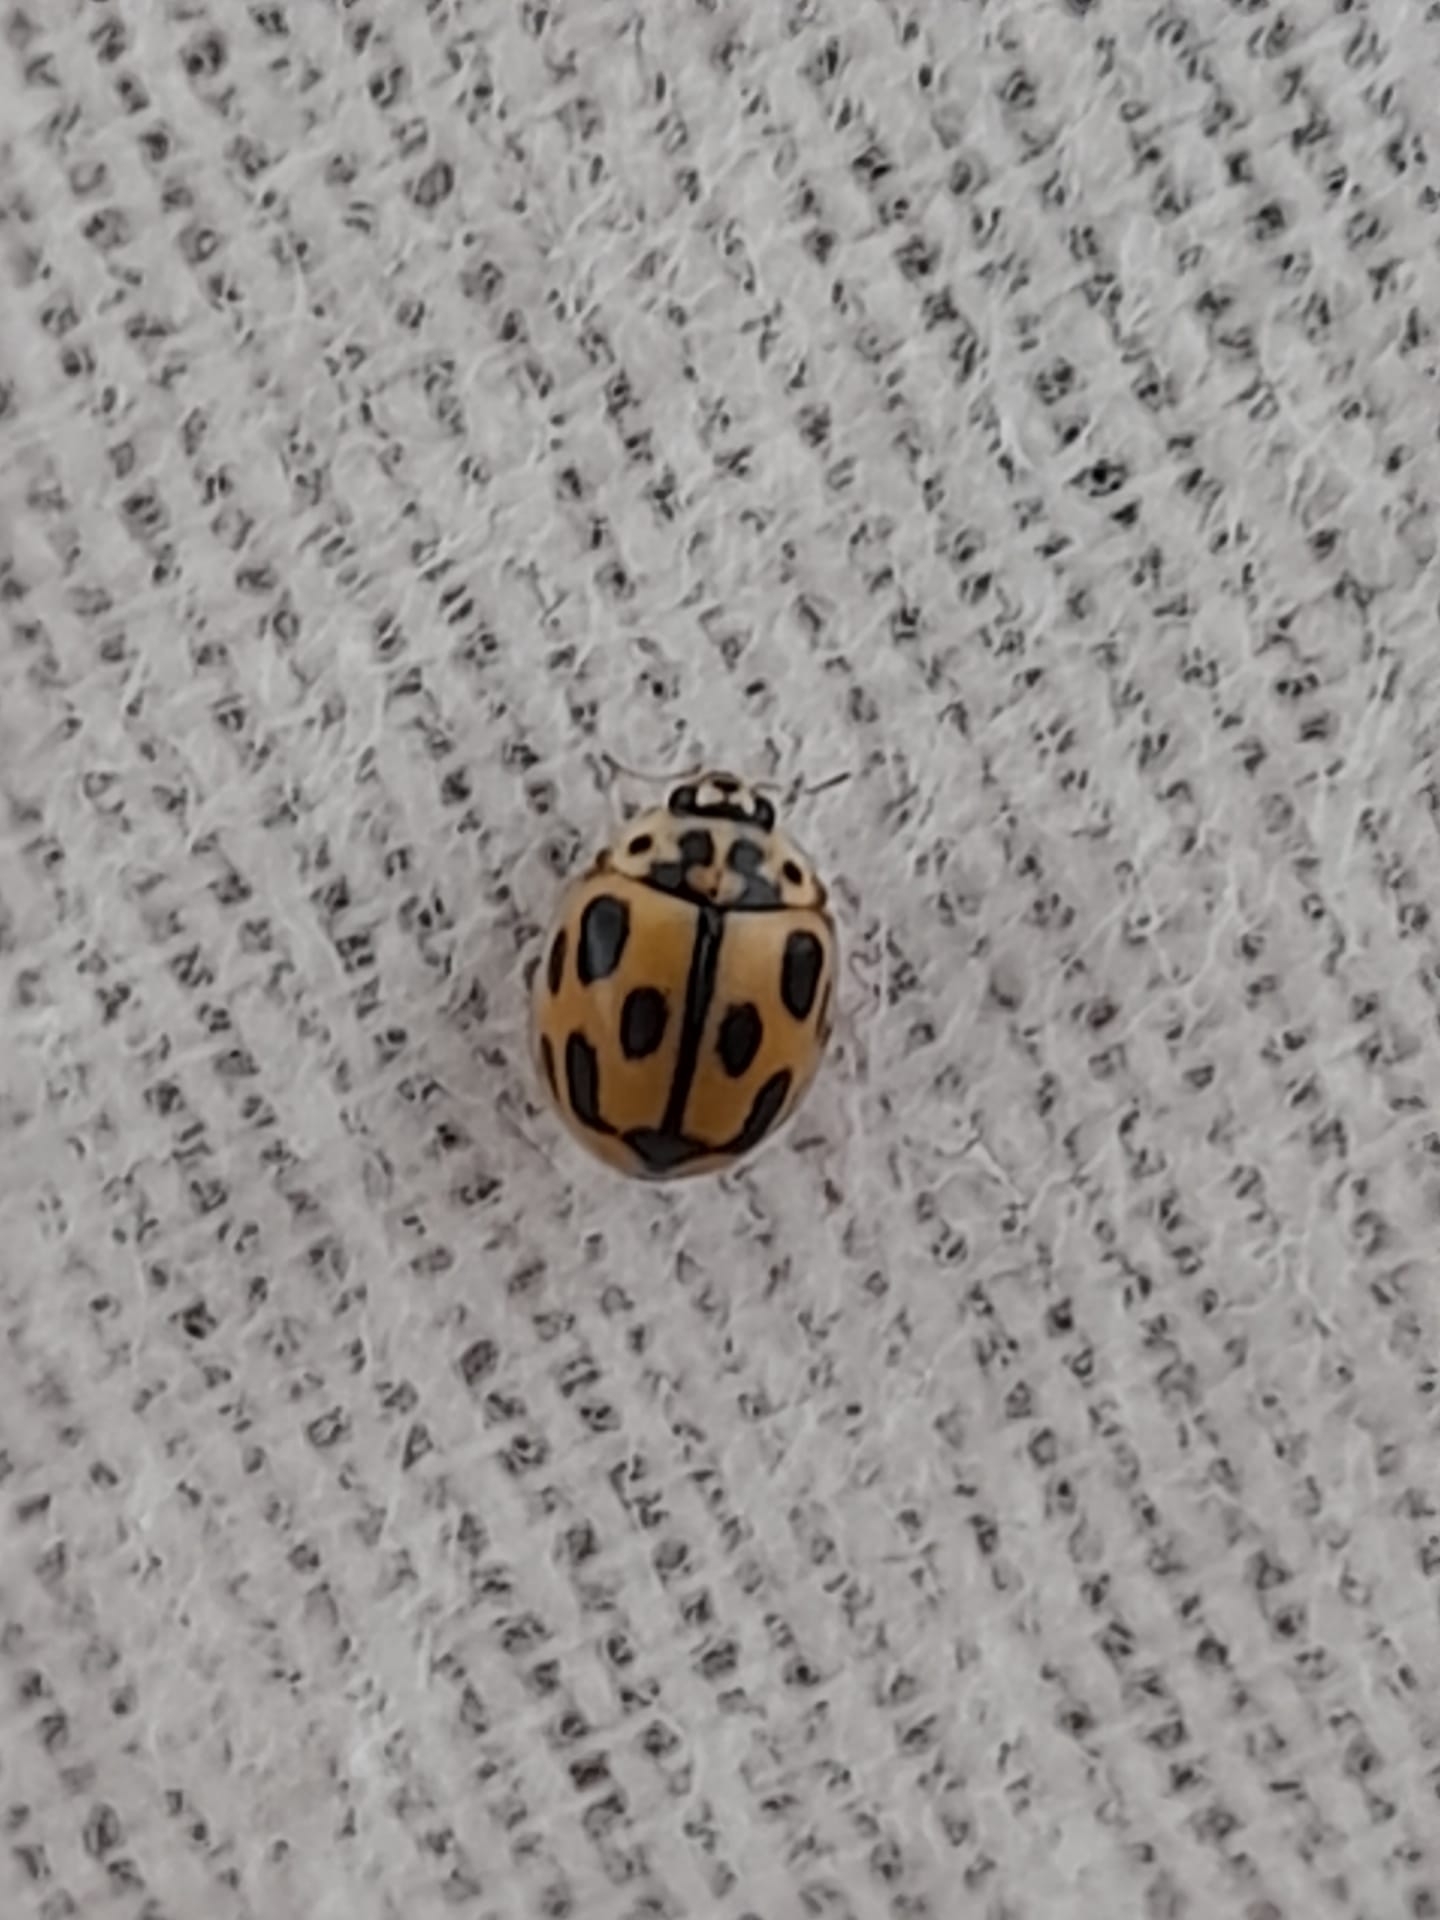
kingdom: Animalia
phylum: Arthropoda
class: Insecta
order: Coleoptera
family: Coccinellidae
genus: Propylaea
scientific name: Propylaea quatuordecimpunctata
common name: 14-spotted ladybird beetle
